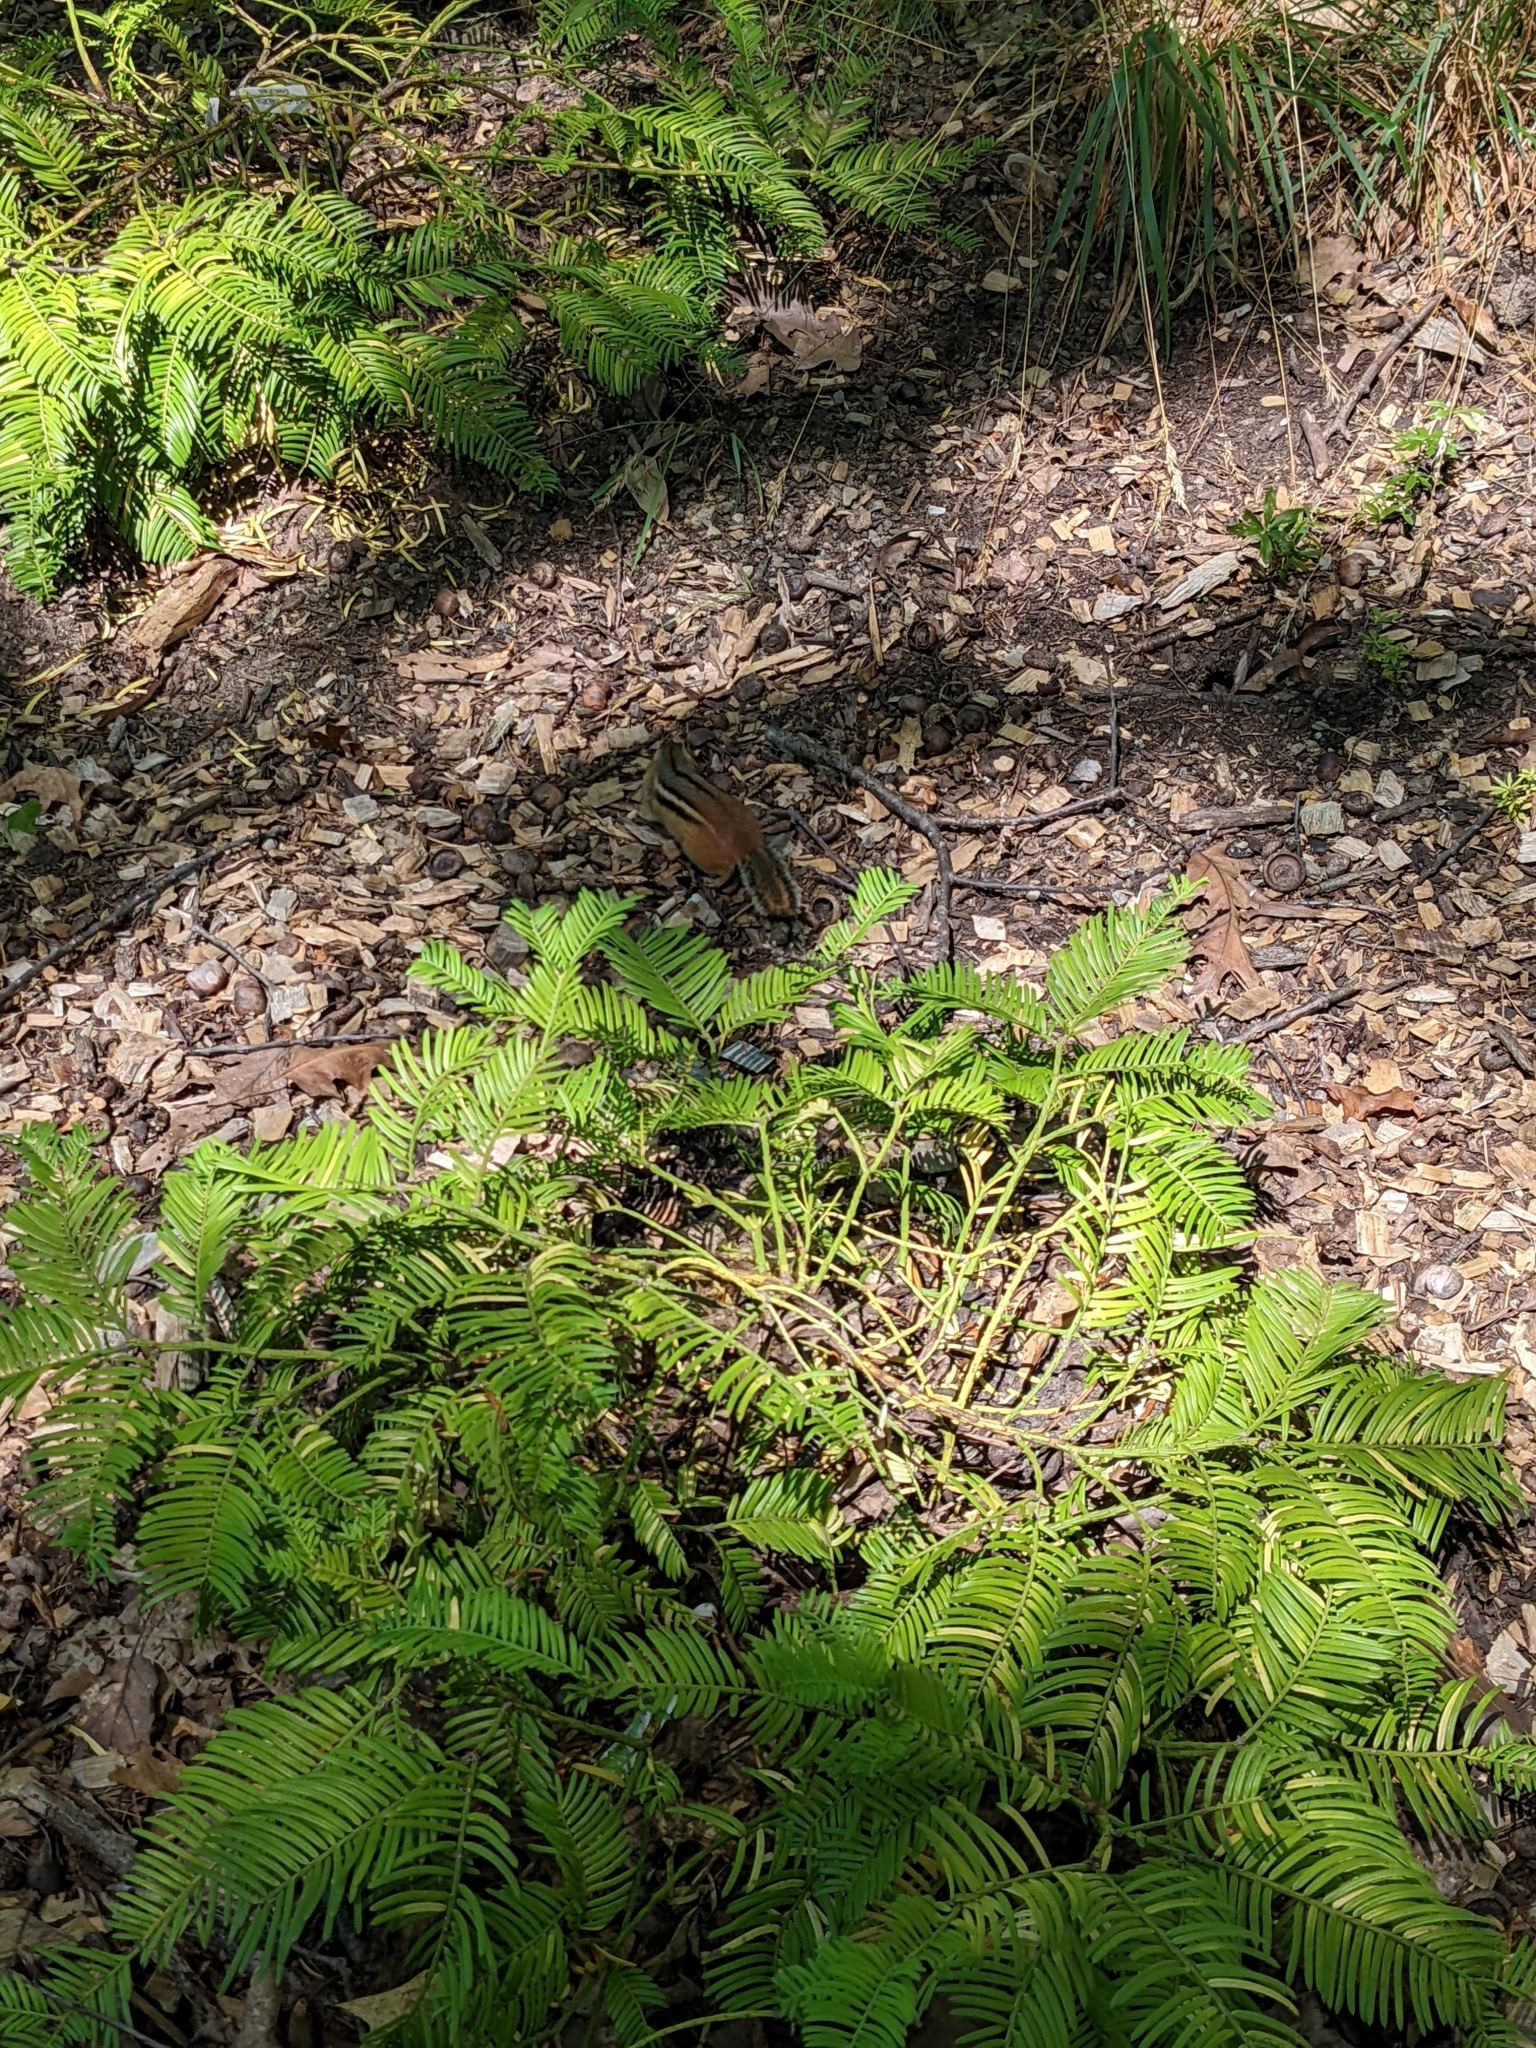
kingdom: Animalia
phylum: Chordata
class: Mammalia
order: Rodentia
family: Sciuridae
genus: Tamias
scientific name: Tamias striatus
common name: Eastern chipmunk
